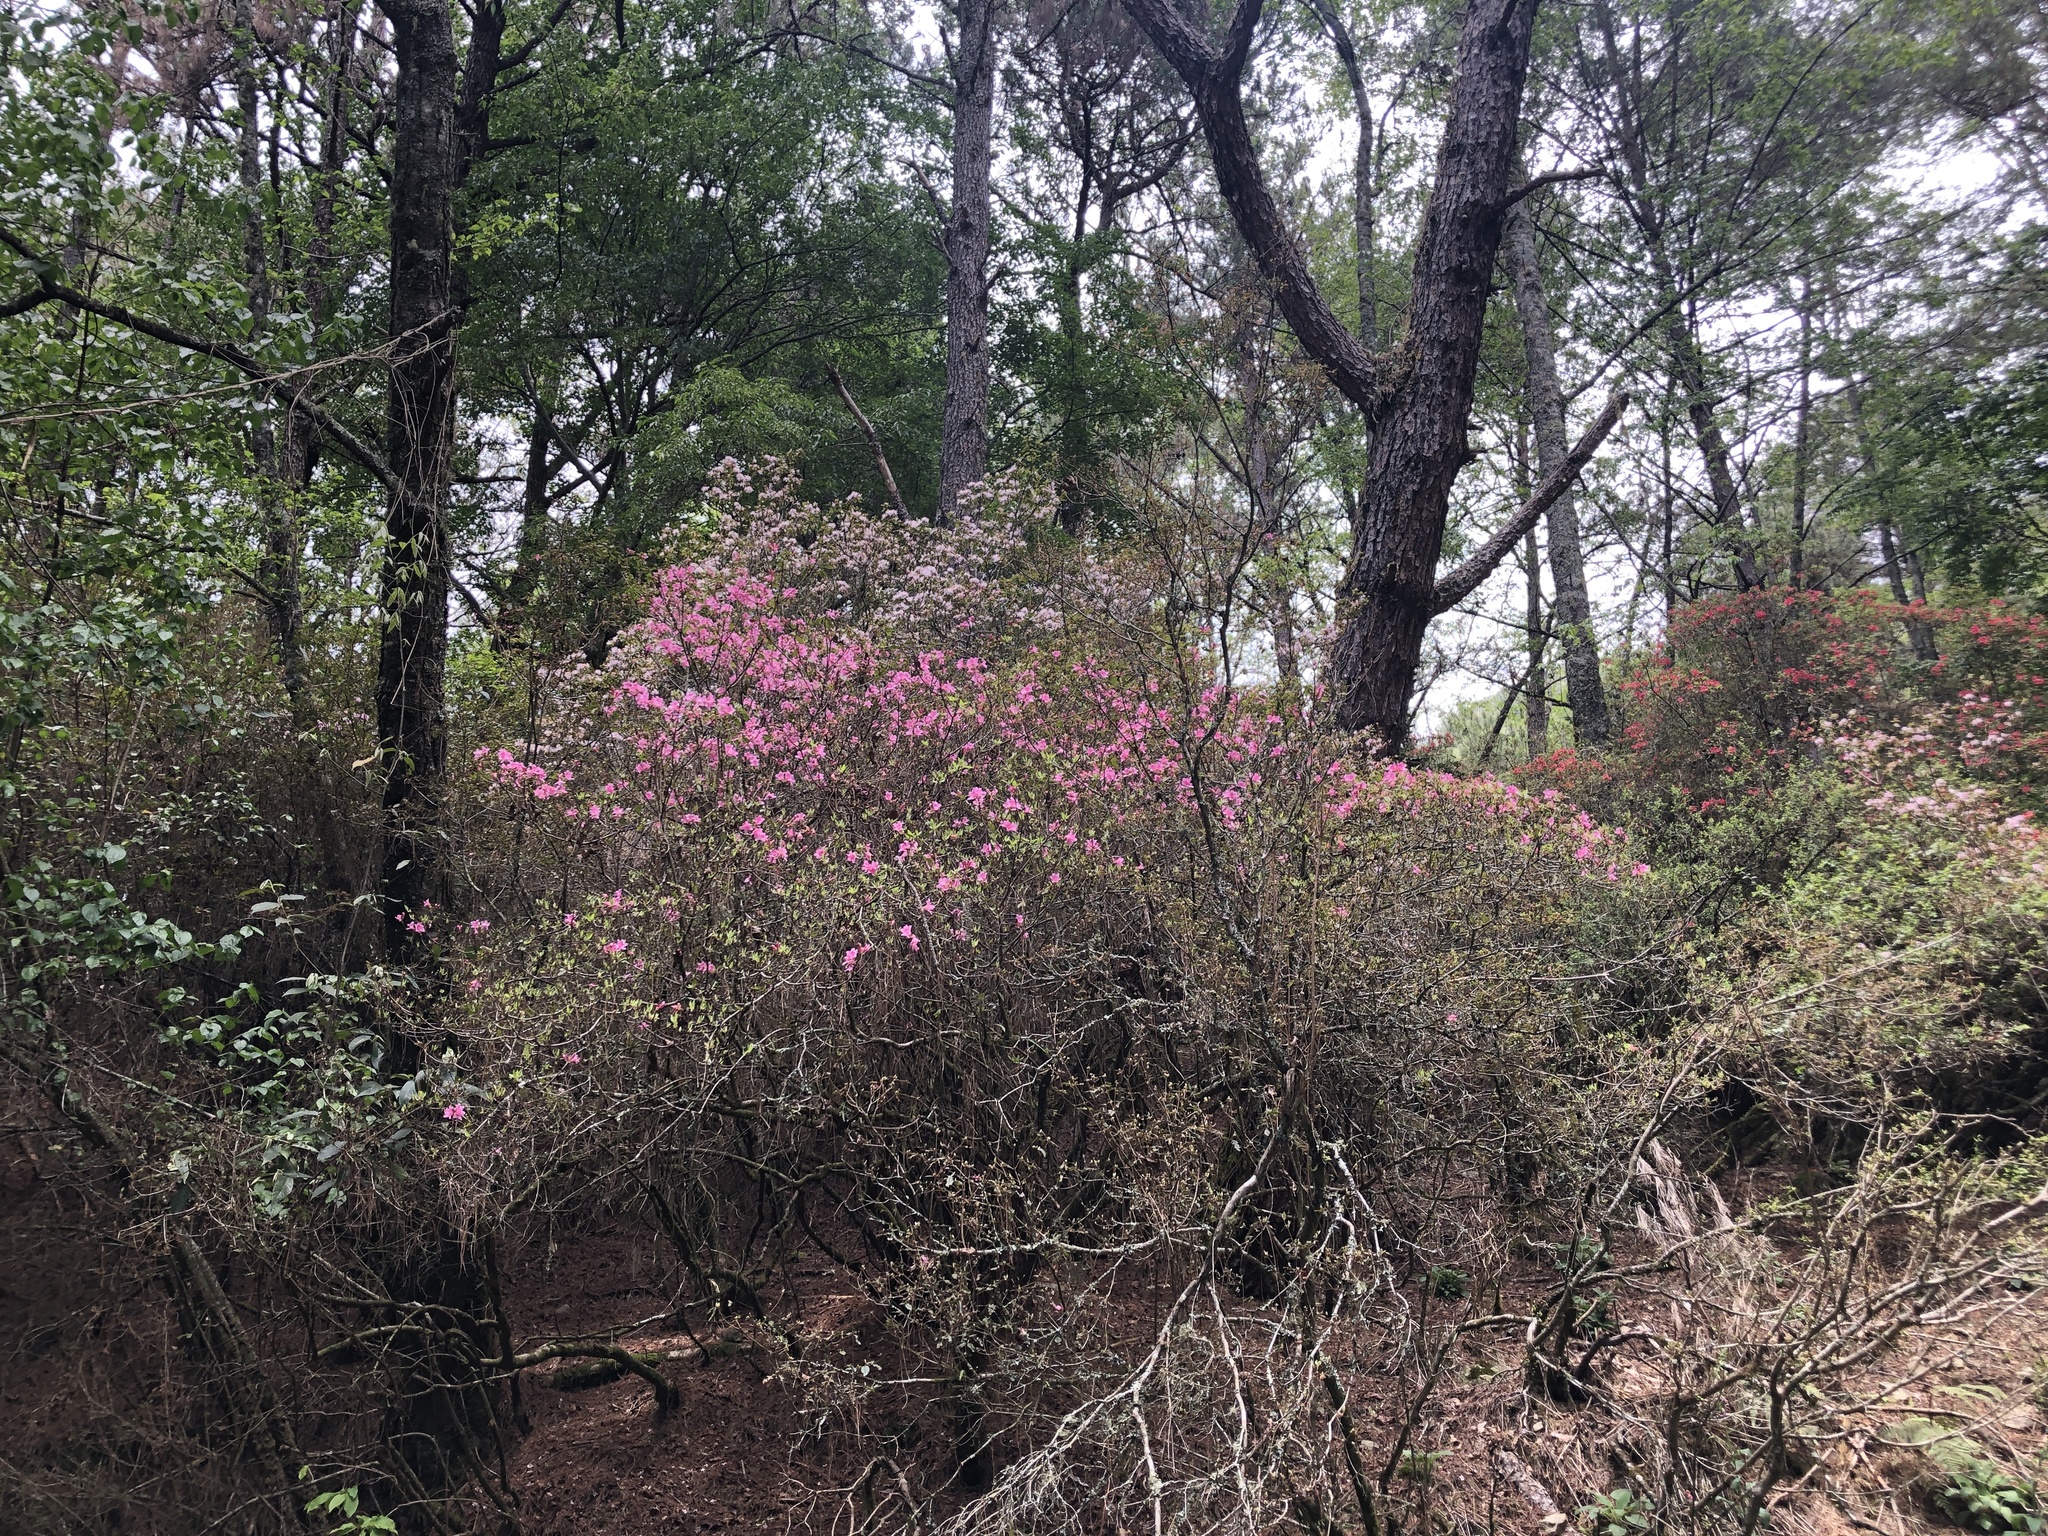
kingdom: Plantae
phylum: Tracheophyta
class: Magnoliopsida
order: Ericales
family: Ericaceae
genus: Rhododendron
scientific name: Rhododendron rubropilosum
